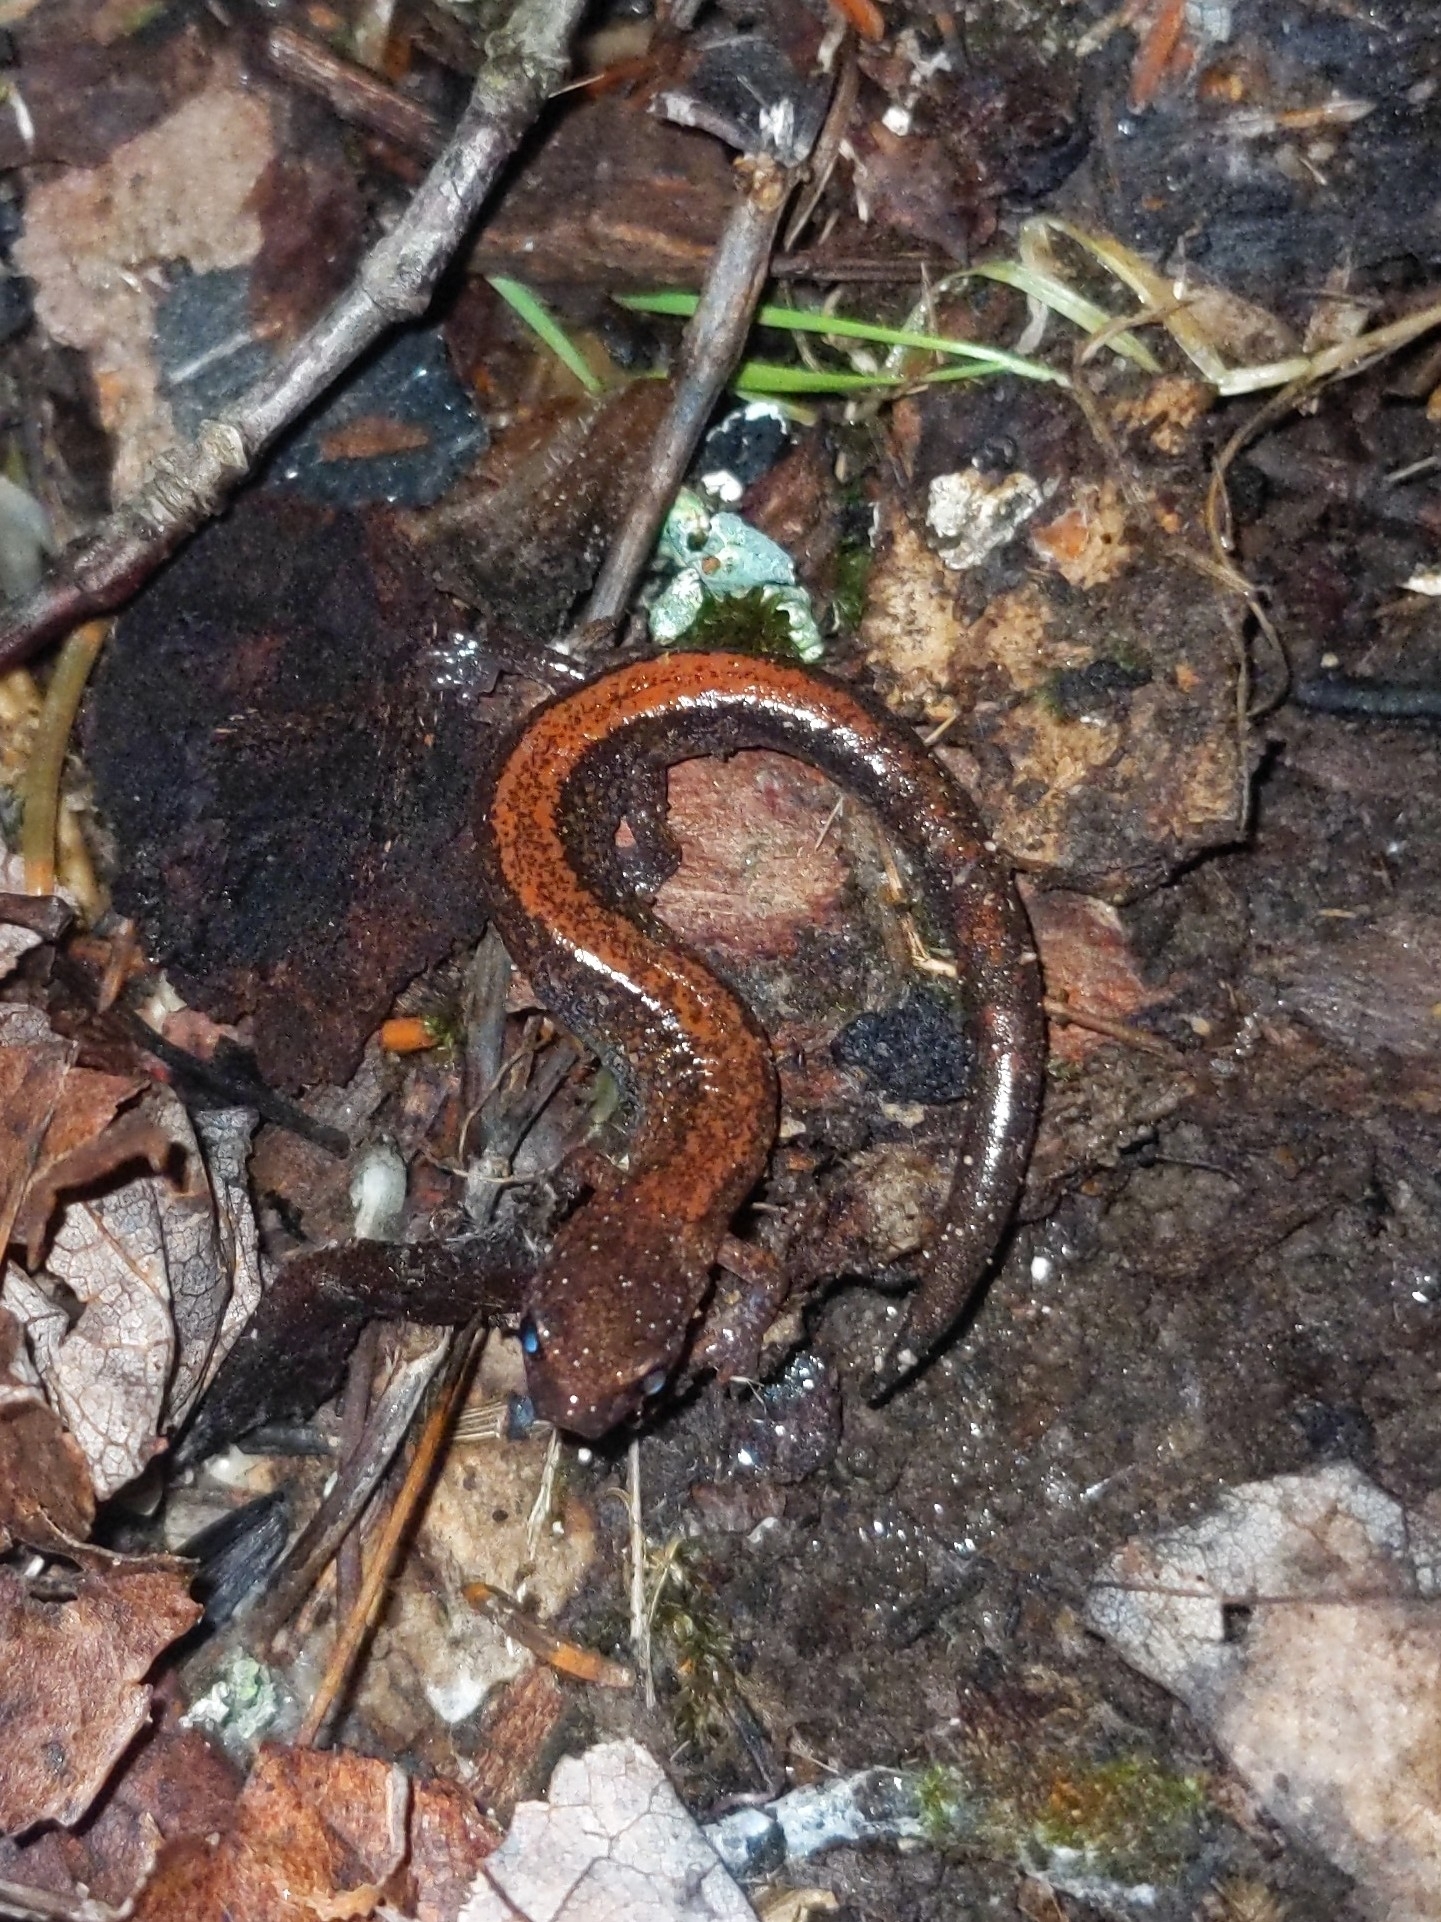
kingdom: Animalia
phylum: Chordata
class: Amphibia
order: Caudata
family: Plethodontidae
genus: Plethodon
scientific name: Plethodon cinereus
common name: Redback salamander
